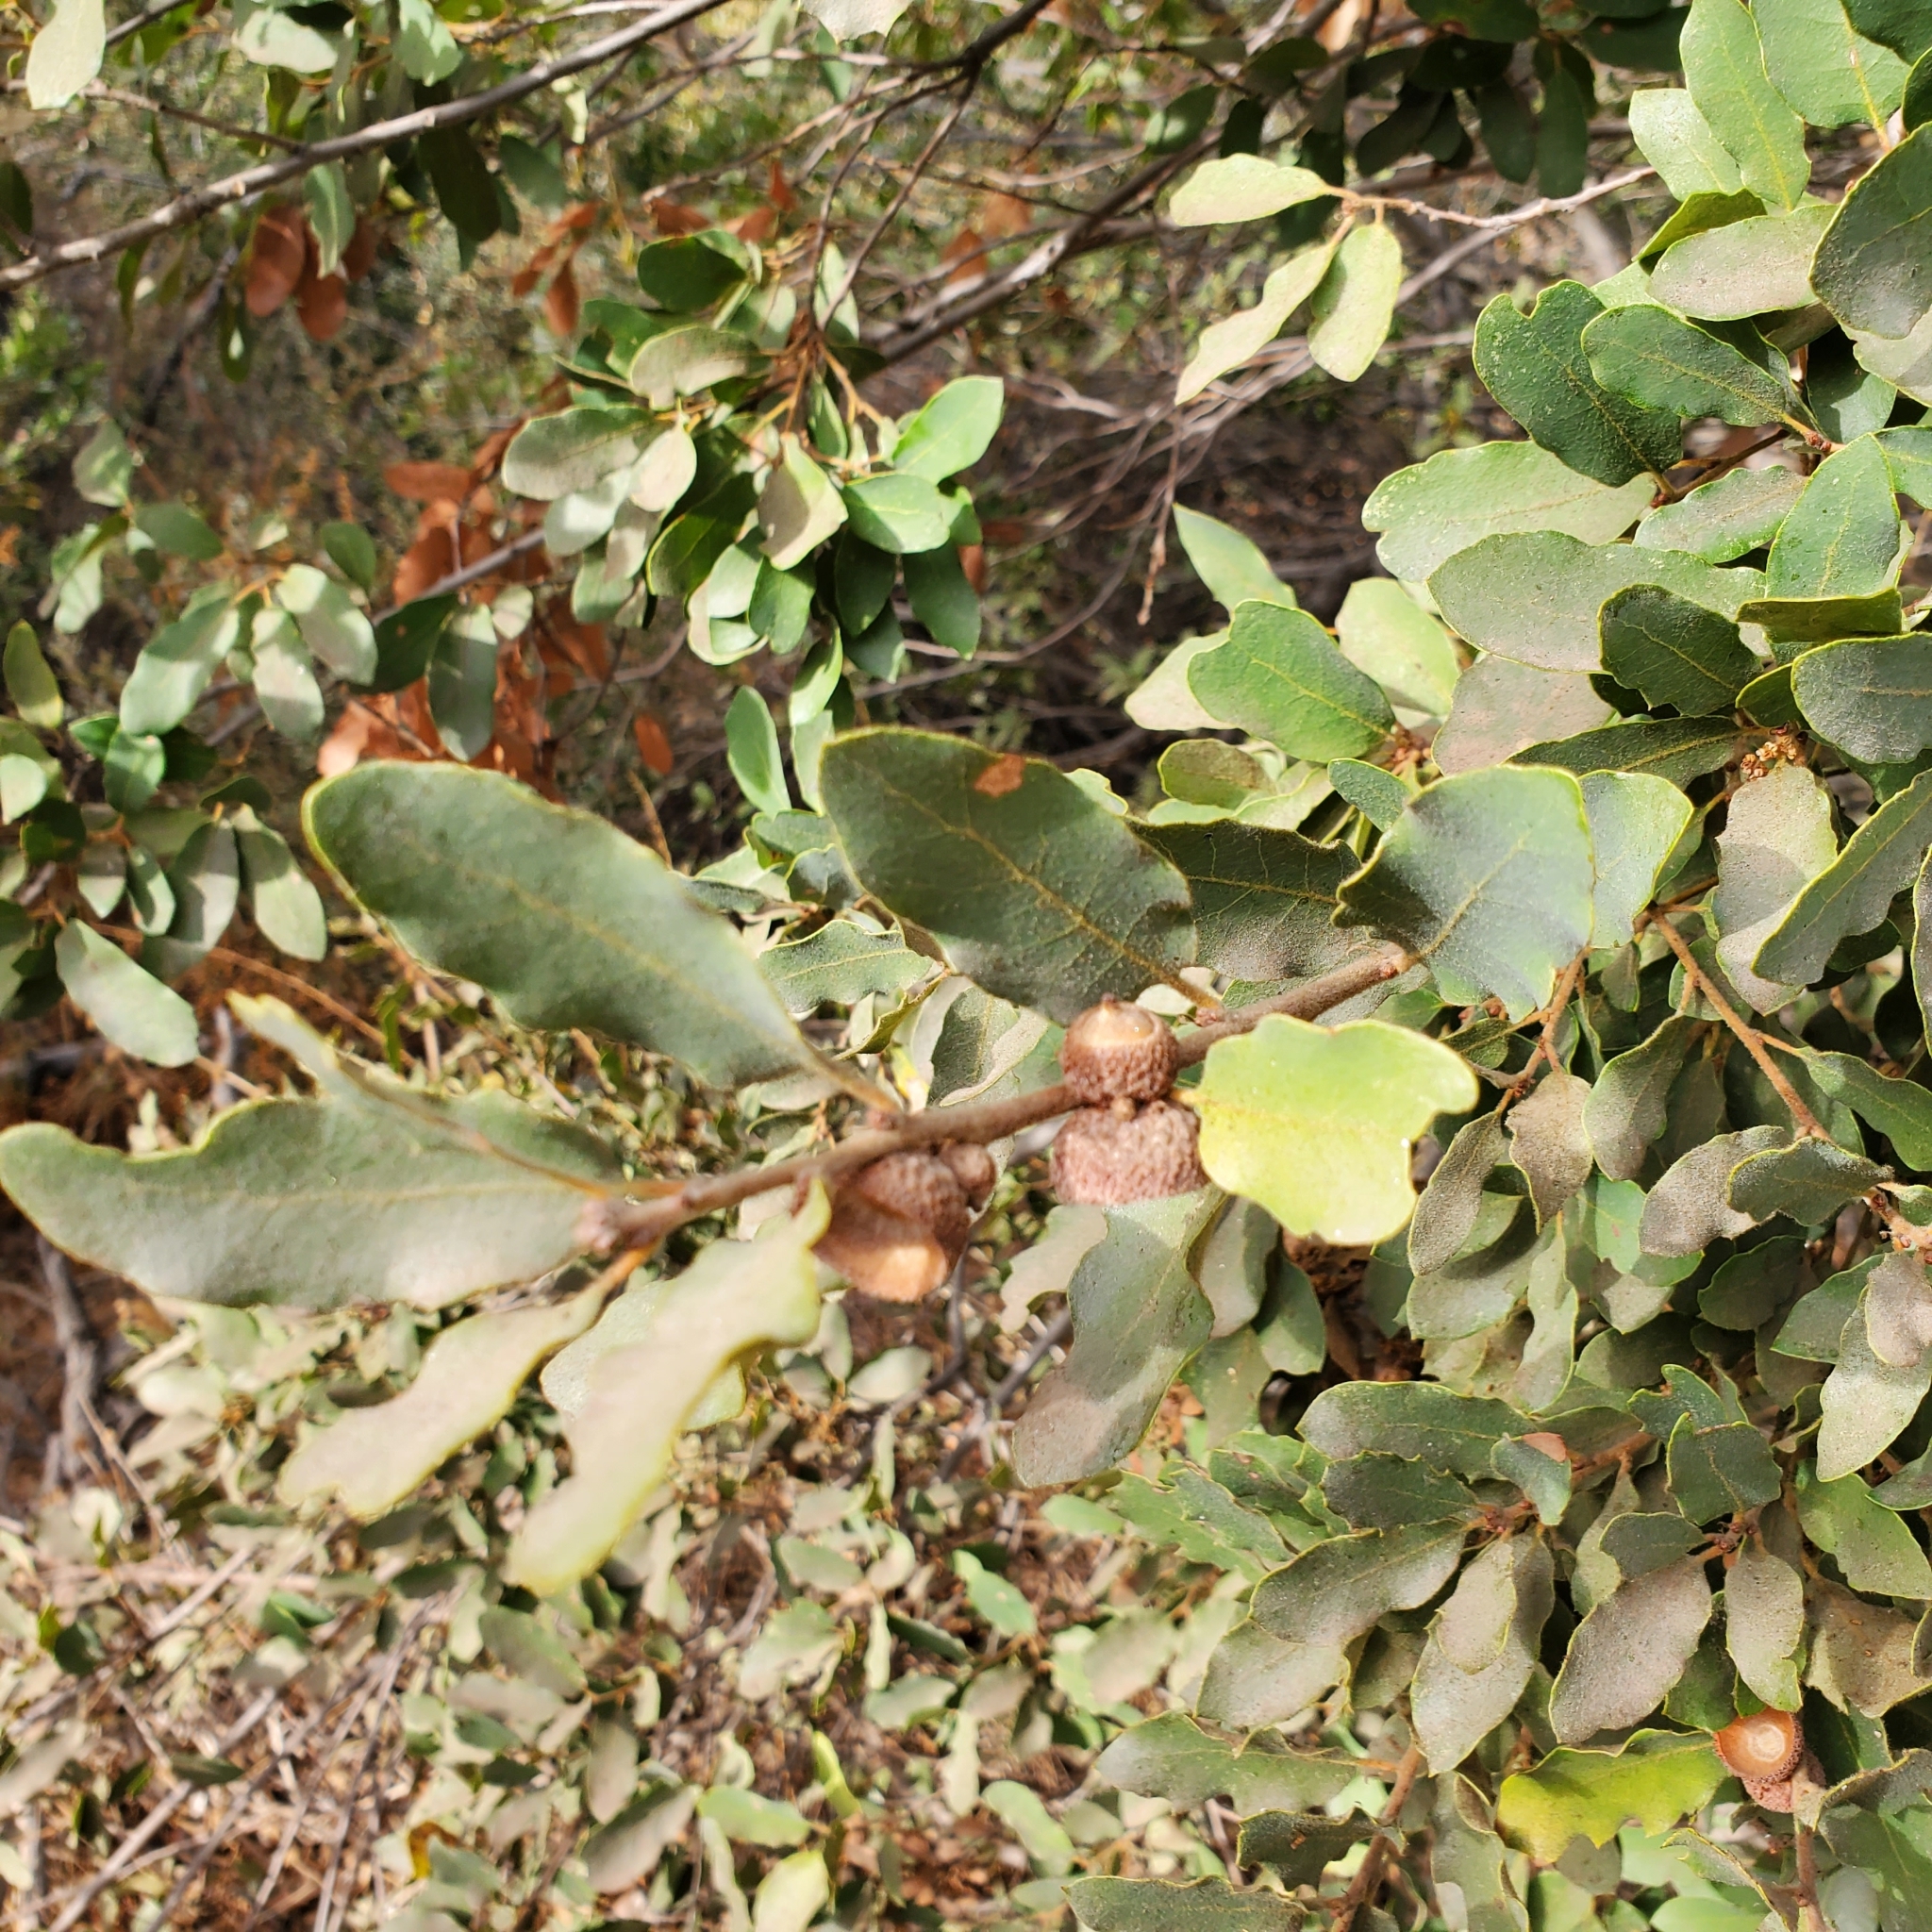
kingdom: Plantae
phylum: Tracheophyta
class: Magnoliopsida
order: Fagales
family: Fagaceae
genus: Quercus
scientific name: Quercus engelmannii
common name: Engelmann oak
